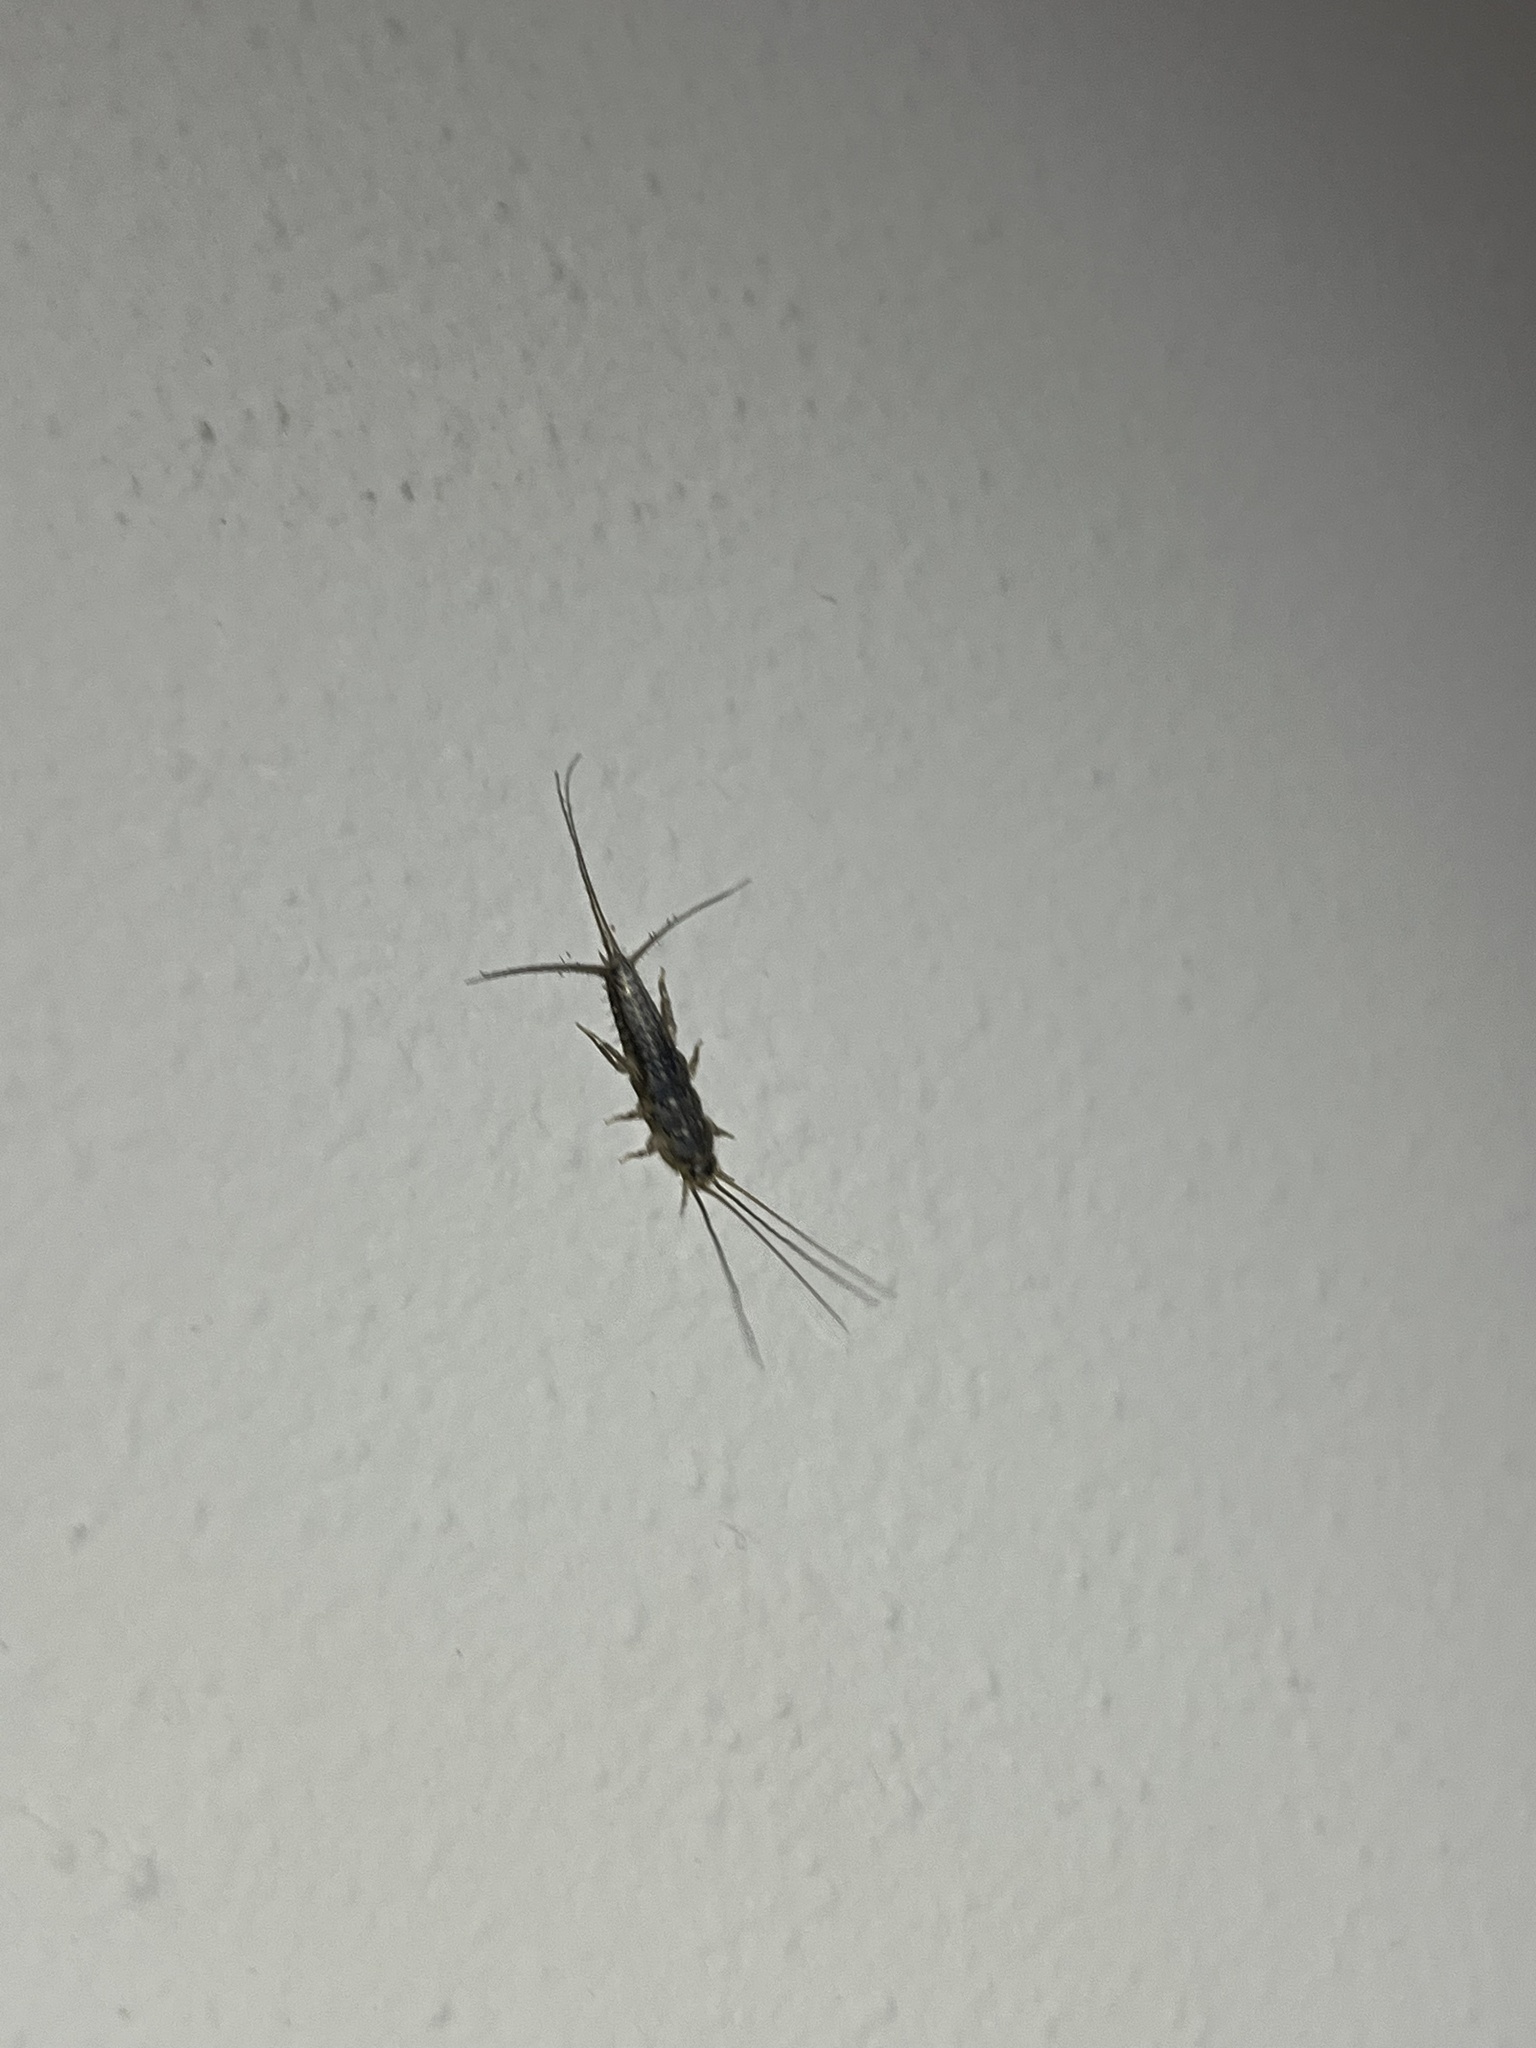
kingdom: Animalia
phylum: Arthropoda
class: Insecta
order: Zygentoma
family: Lepismatidae
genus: Ctenolepisma
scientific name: Ctenolepisma lineata
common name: Four-lined silverfish
